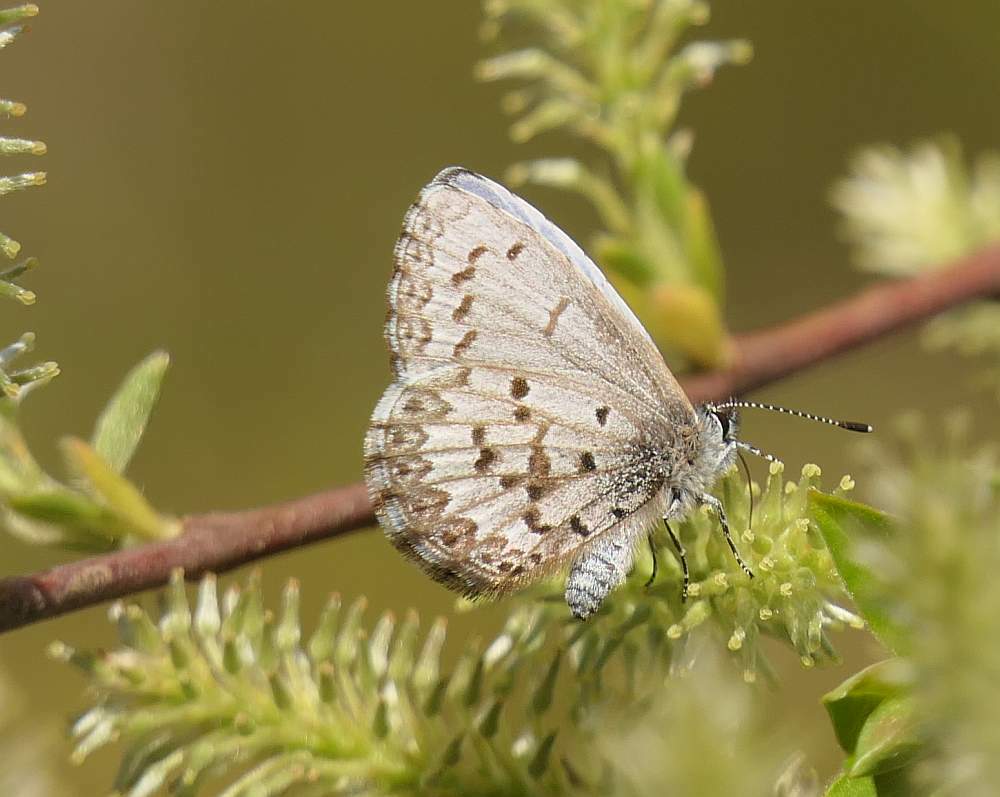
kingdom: Animalia
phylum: Arthropoda
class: Insecta
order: Lepidoptera
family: Lycaenidae
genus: Celastrina
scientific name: Celastrina lucia
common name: Lucia azure
